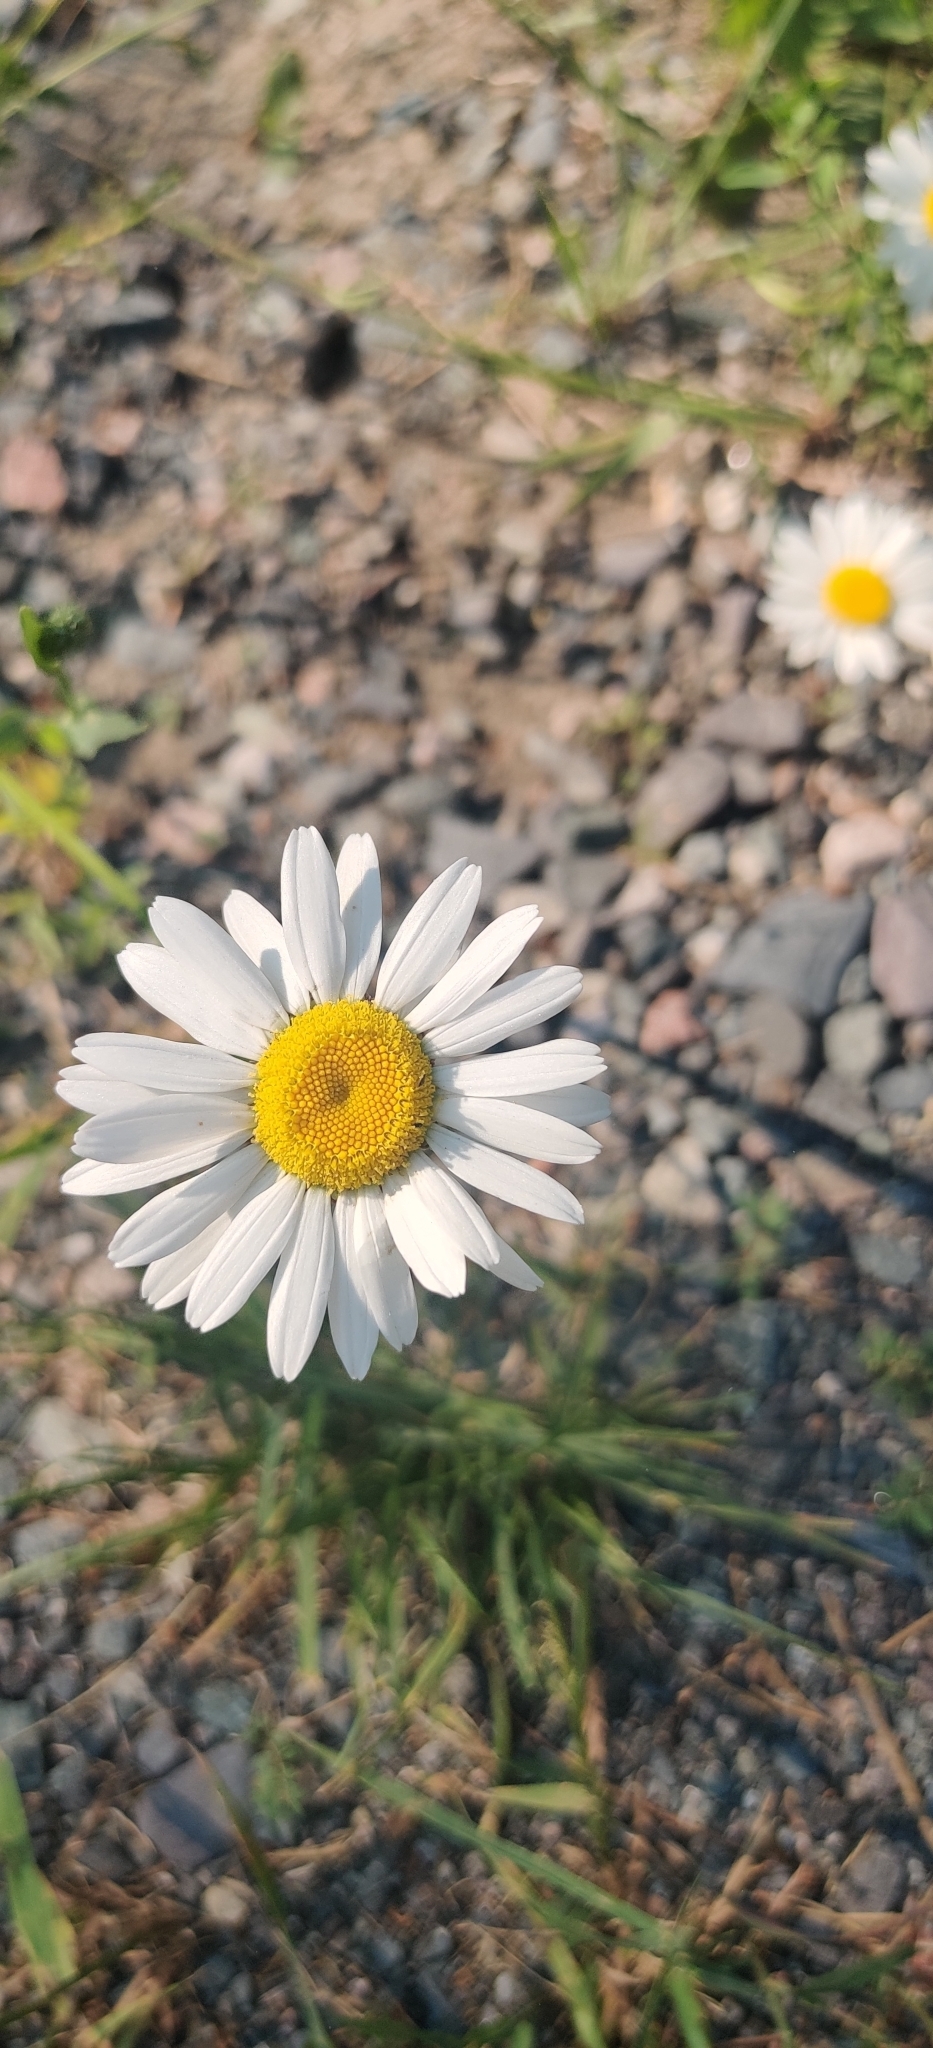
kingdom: Plantae
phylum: Tracheophyta
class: Magnoliopsida
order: Asterales
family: Asteraceae
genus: Leucanthemum
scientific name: Leucanthemum vulgare
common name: Oxeye daisy
